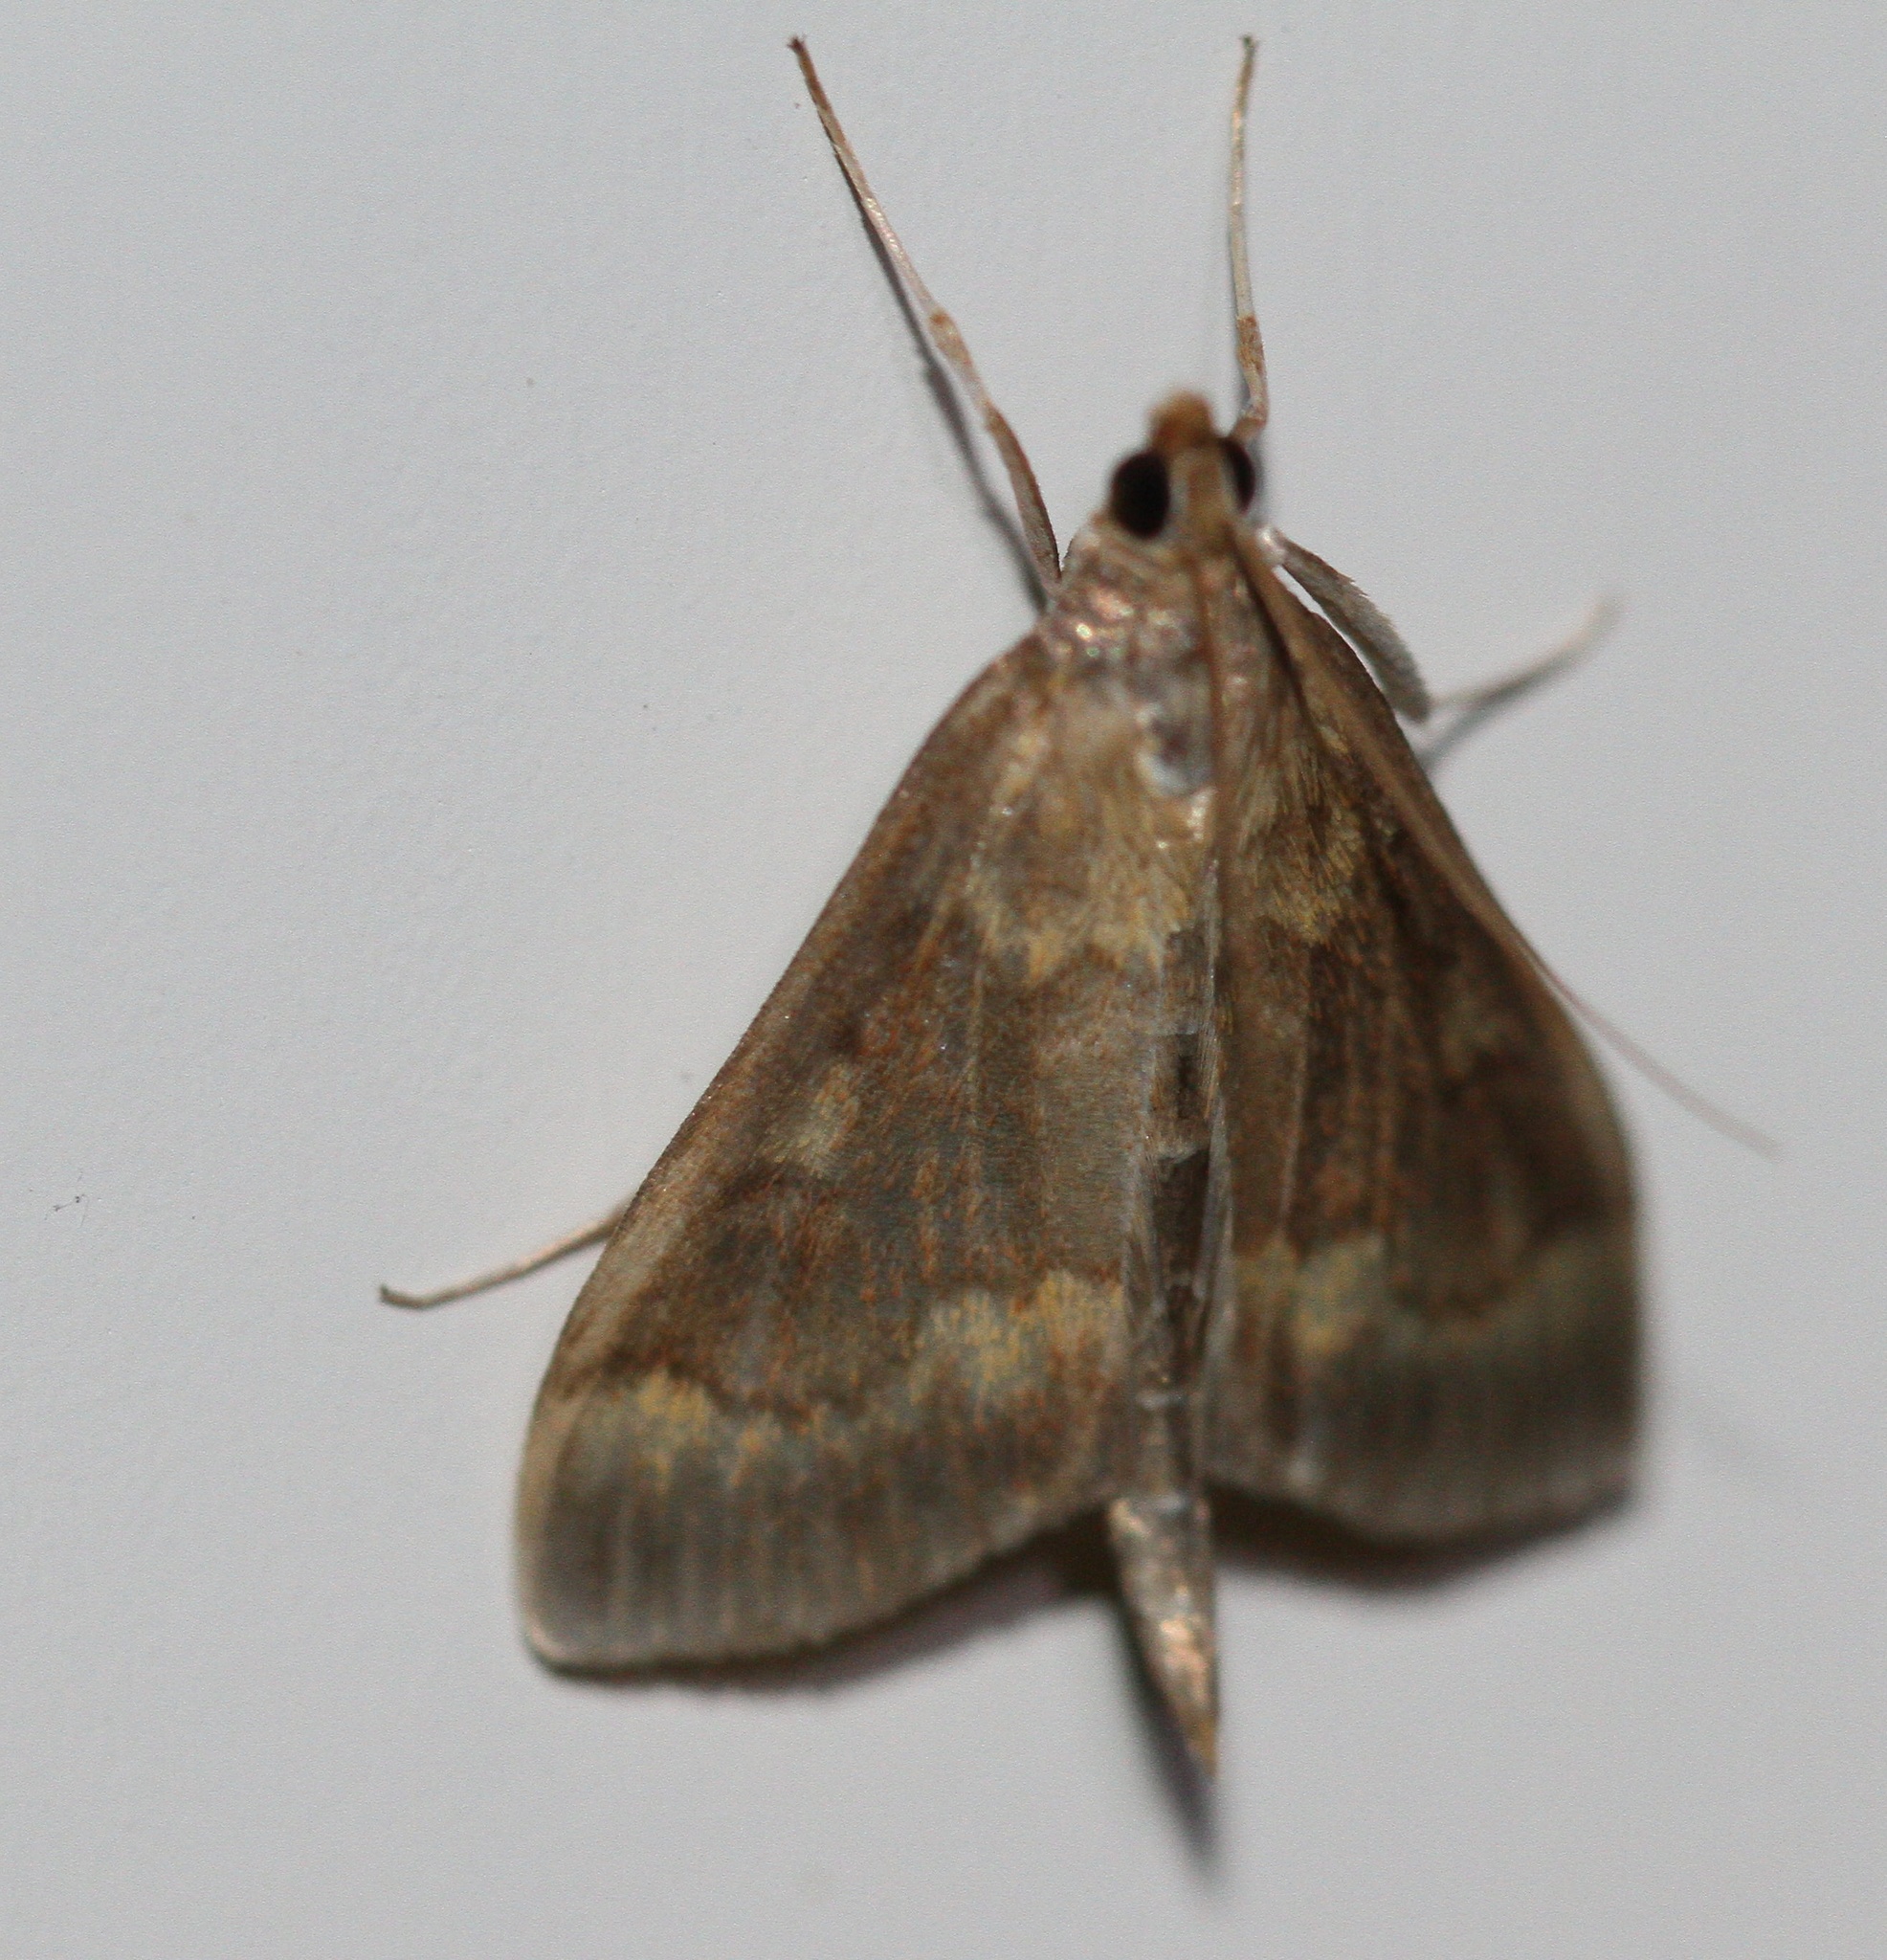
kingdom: Animalia
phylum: Arthropoda
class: Insecta
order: Lepidoptera
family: Crambidae
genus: Ostrinia
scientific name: Ostrinia nubilalis
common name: European corn borer
